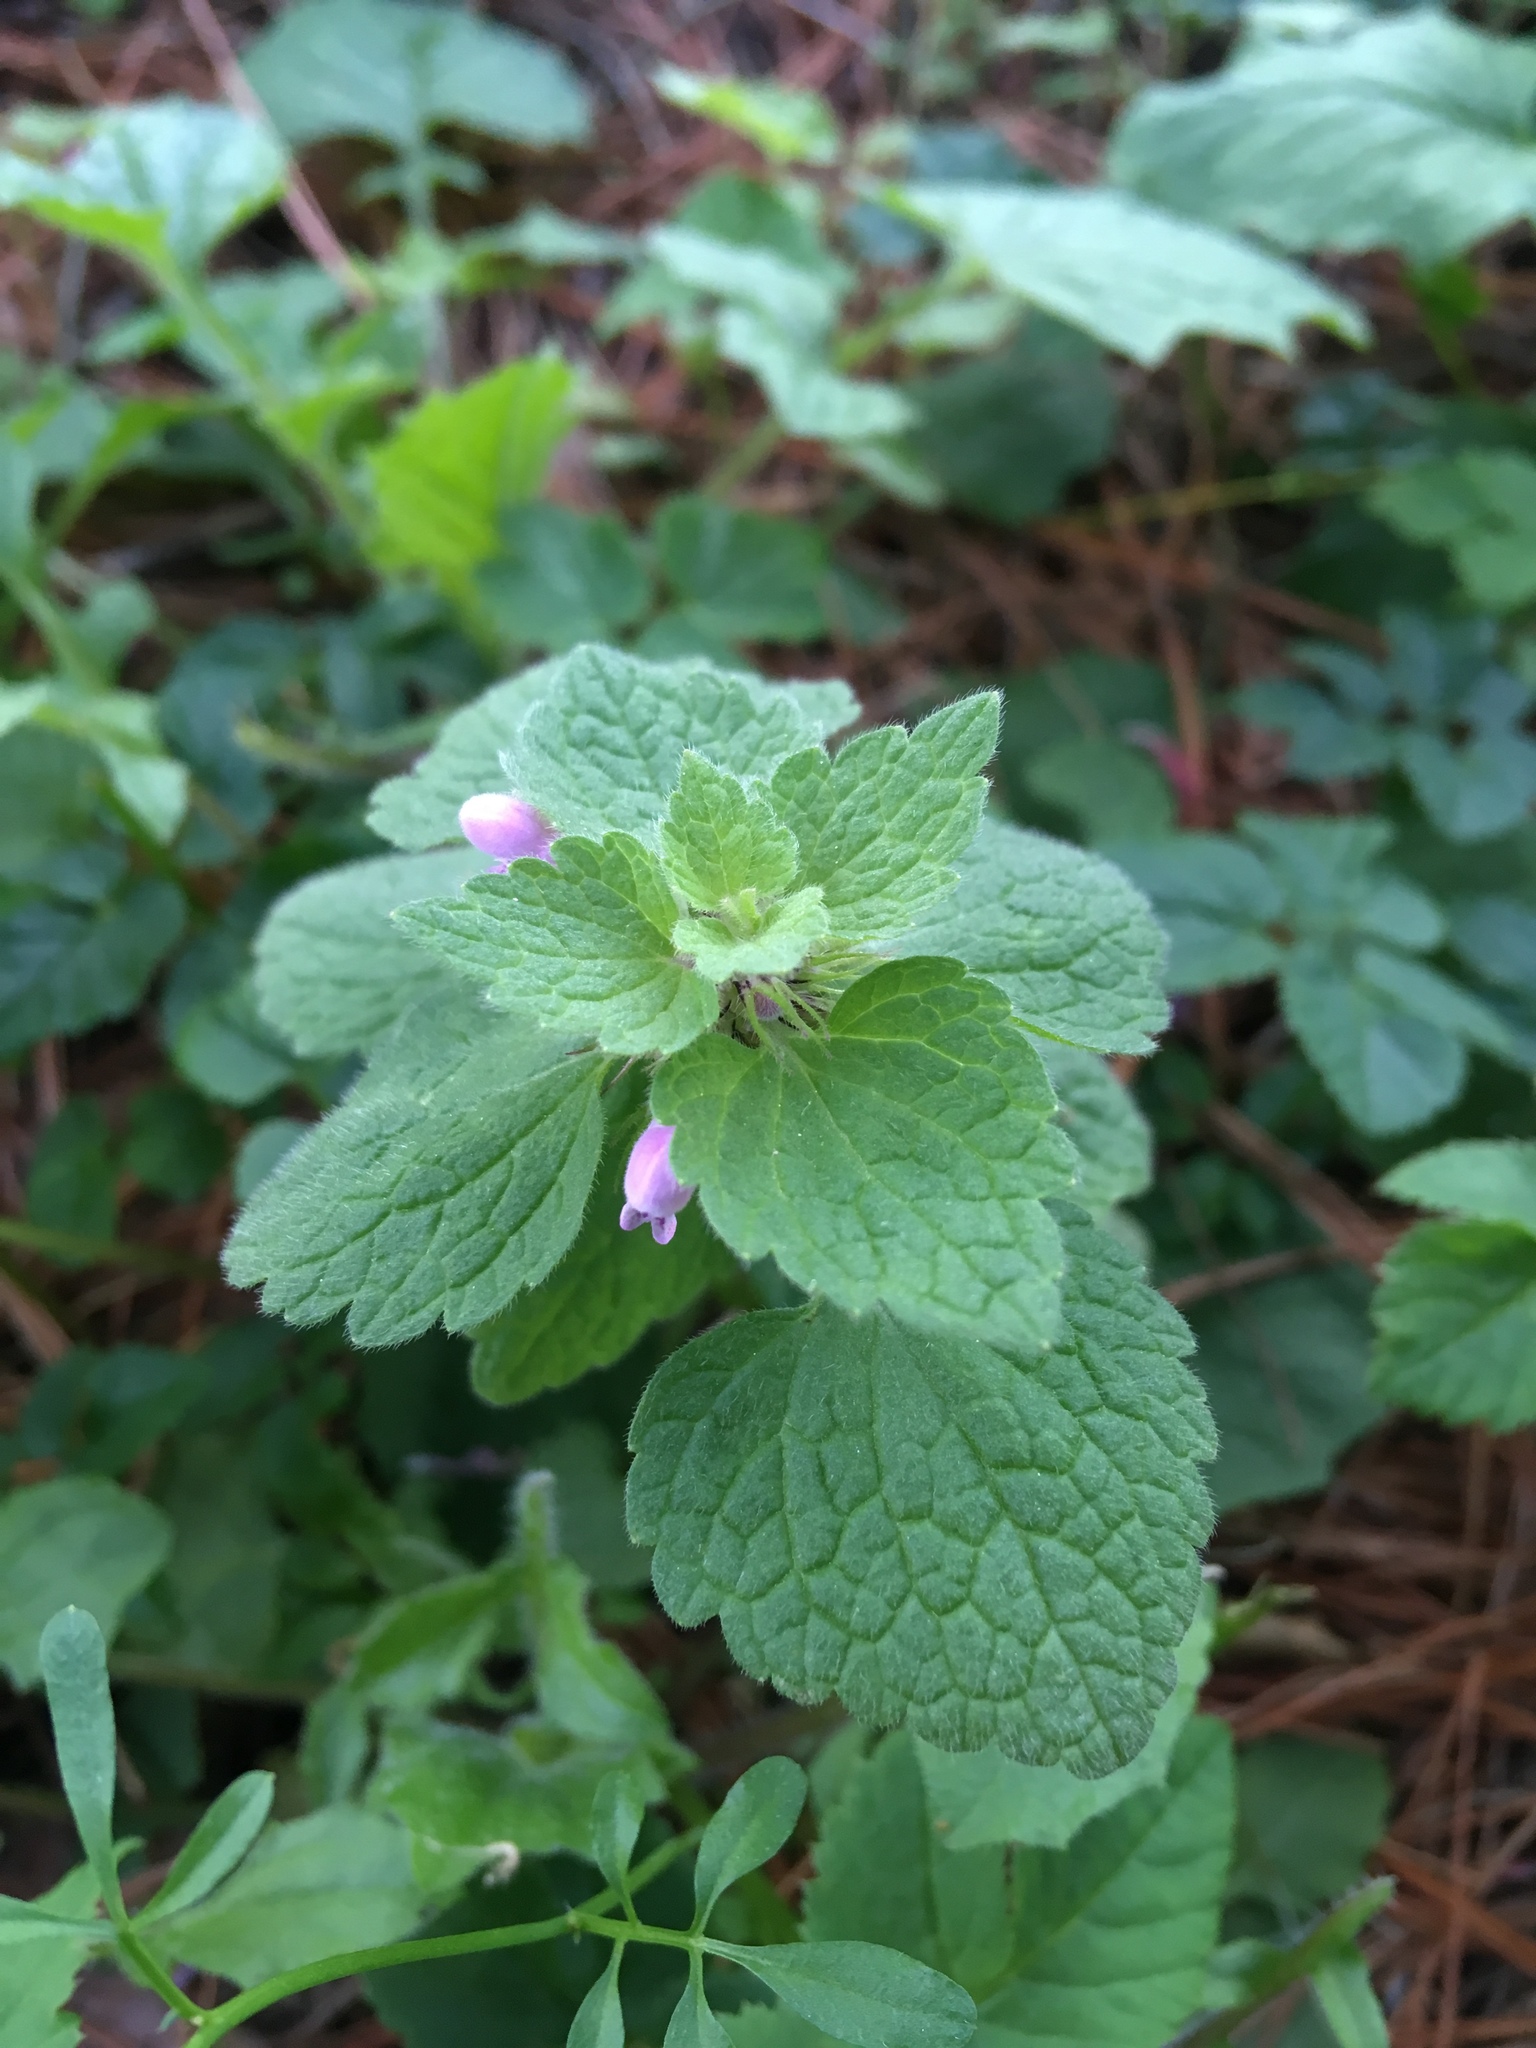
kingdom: Plantae
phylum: Tracheophyta
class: Magnoliopsida
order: Lamiales
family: Lamiaceae
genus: Lamium
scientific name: Lamium purpureum
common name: Red dead-nettle
